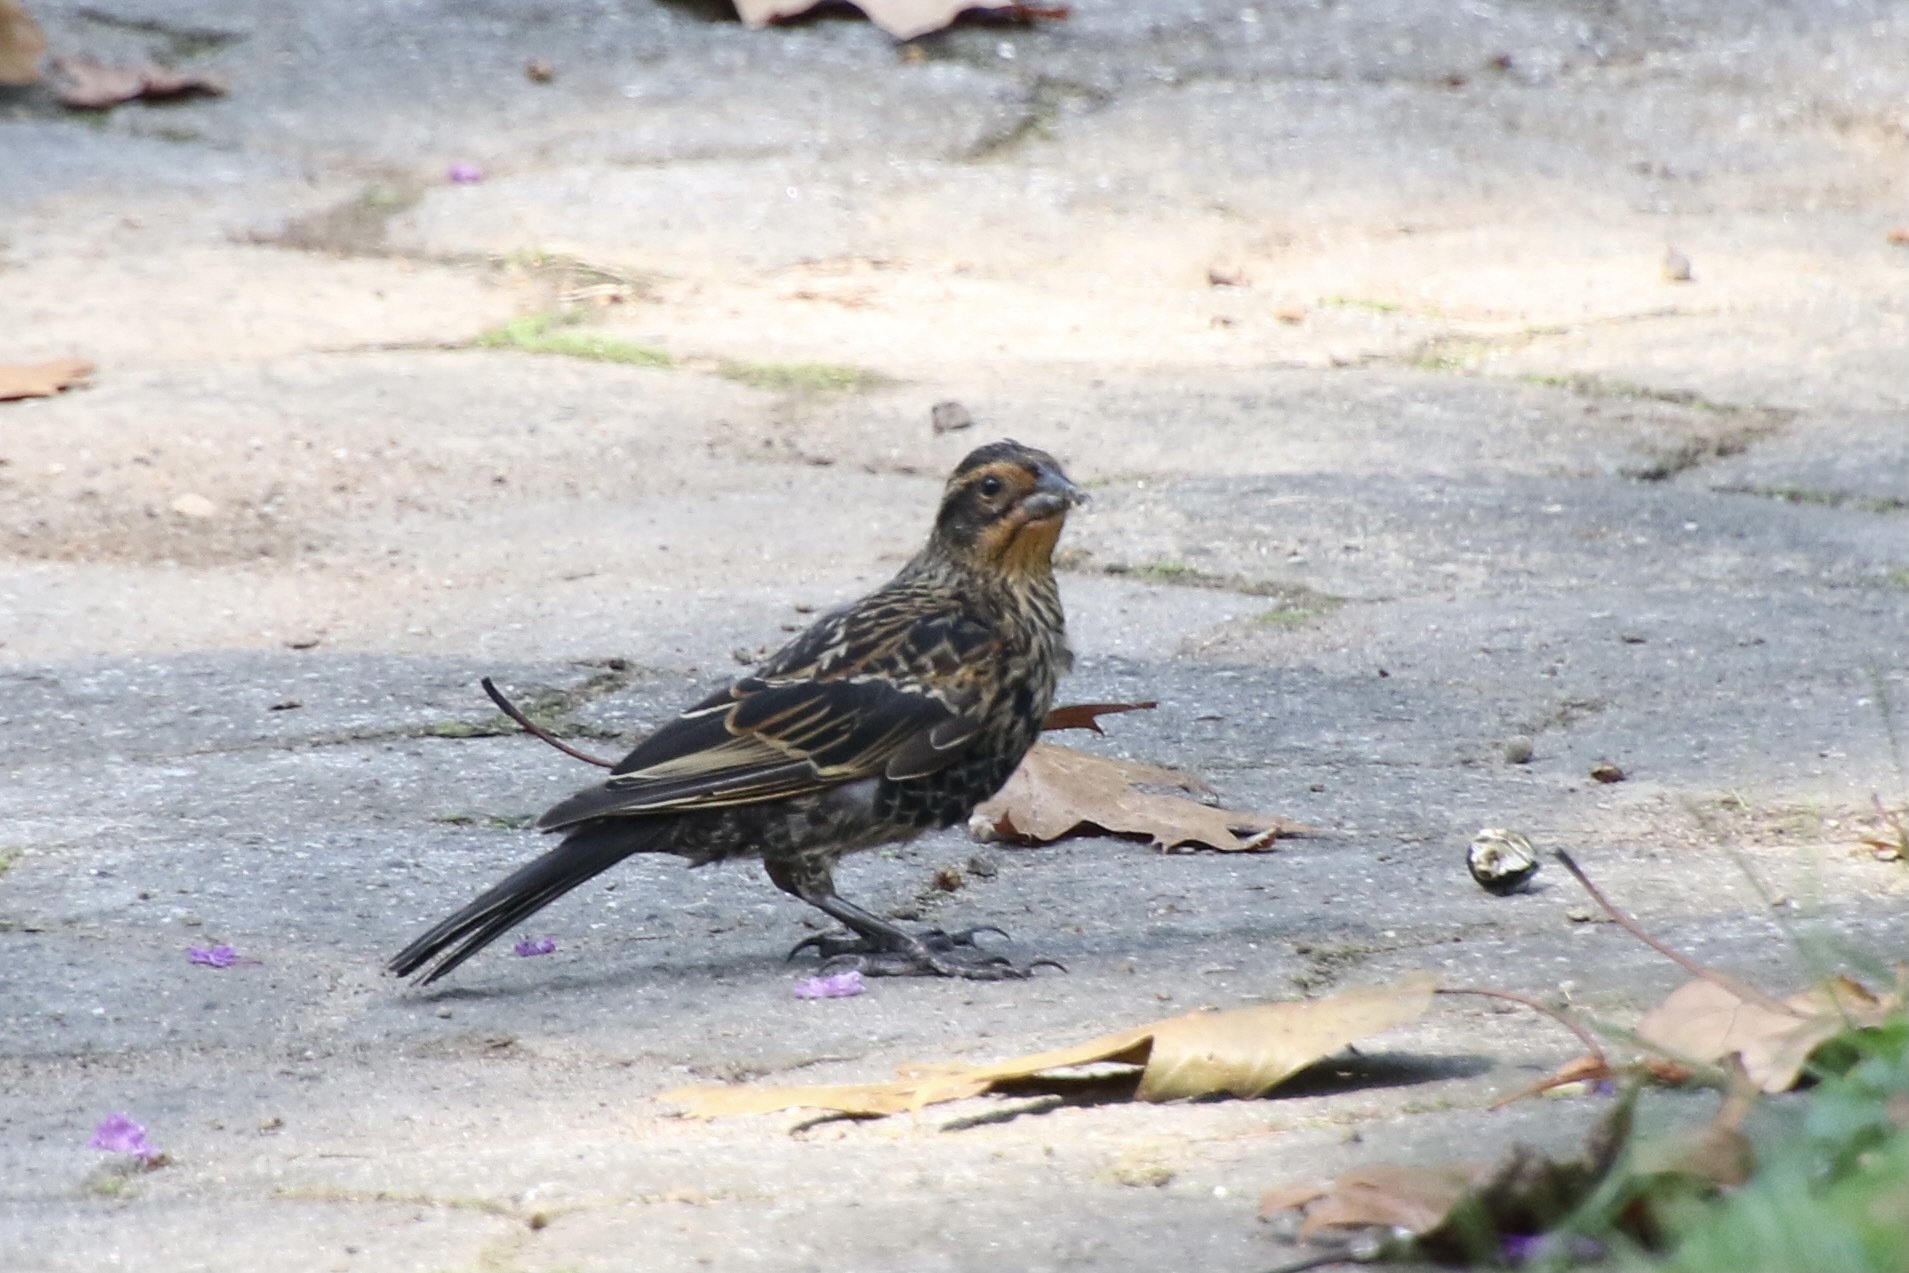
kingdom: Animalia
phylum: Chordata
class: Aves
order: Passeriformes
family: Icteridae
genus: Agelaius
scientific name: Agelaius phoeniceus
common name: Red-winged blackbird
